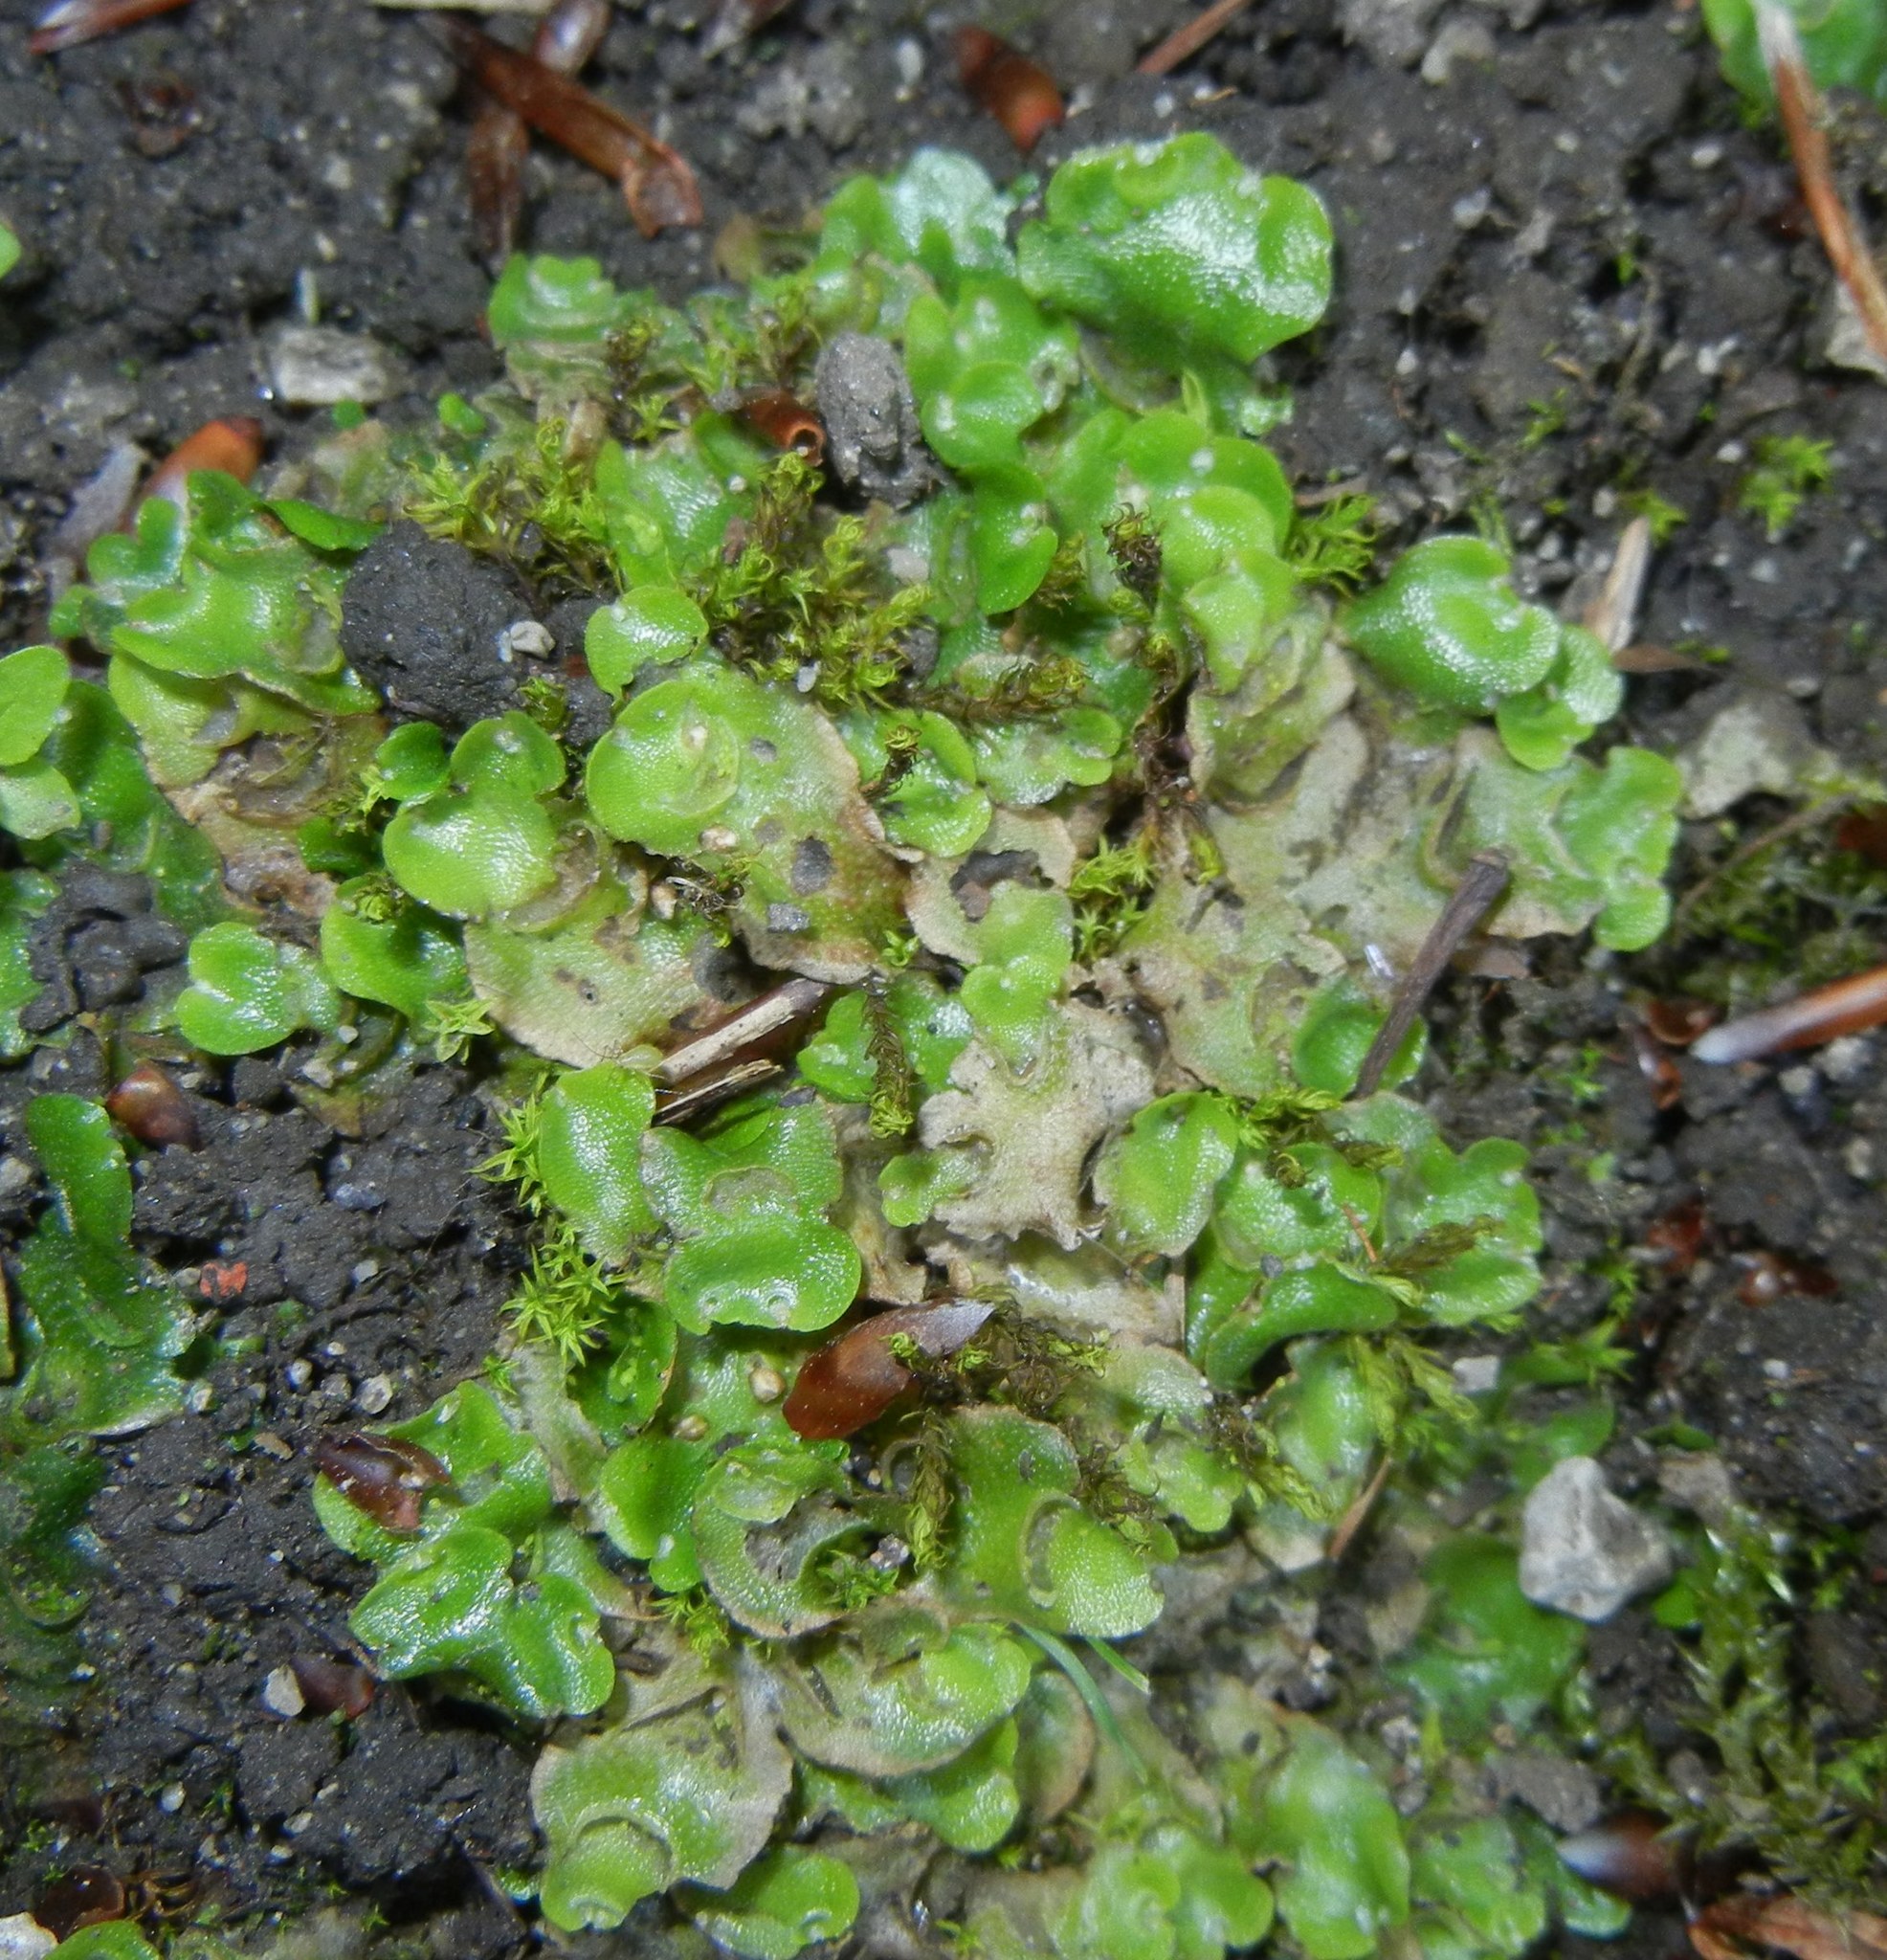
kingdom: Plantae
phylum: Marchantiophyta
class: Marchantiopsida
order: Lunulariales
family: Lunulariaceae
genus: Lunularia
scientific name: Lunularia cruciata
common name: Crescent-cup liverwort
